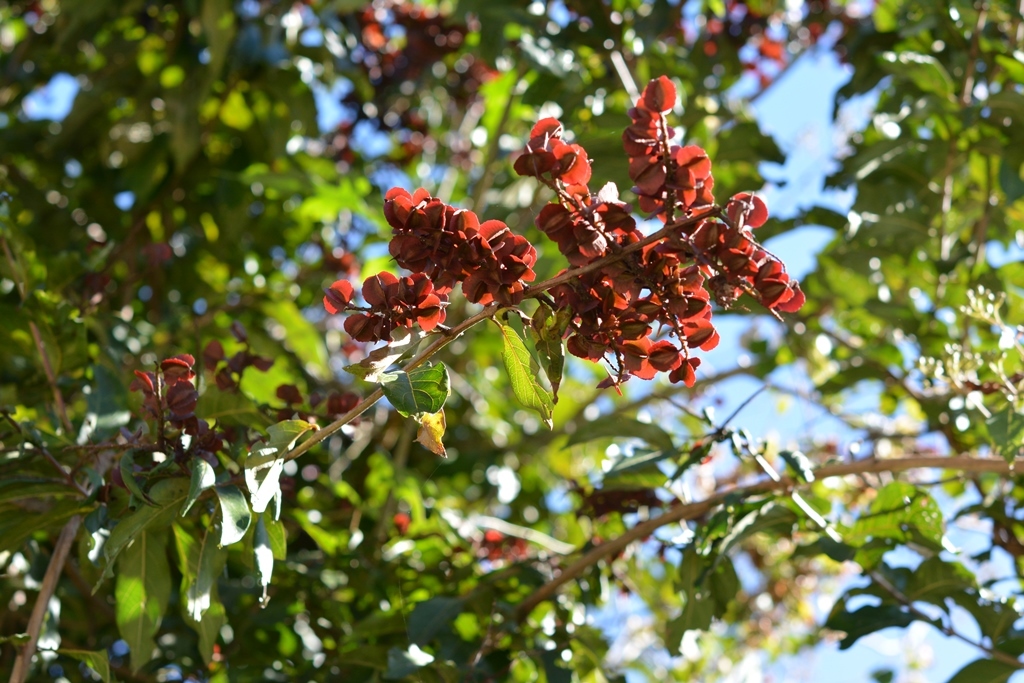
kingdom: Plantae
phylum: Tracheophyta
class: Magnoliopsida
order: Myrtales
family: Combretaceae
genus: Combretum
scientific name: Combretum farinosum
